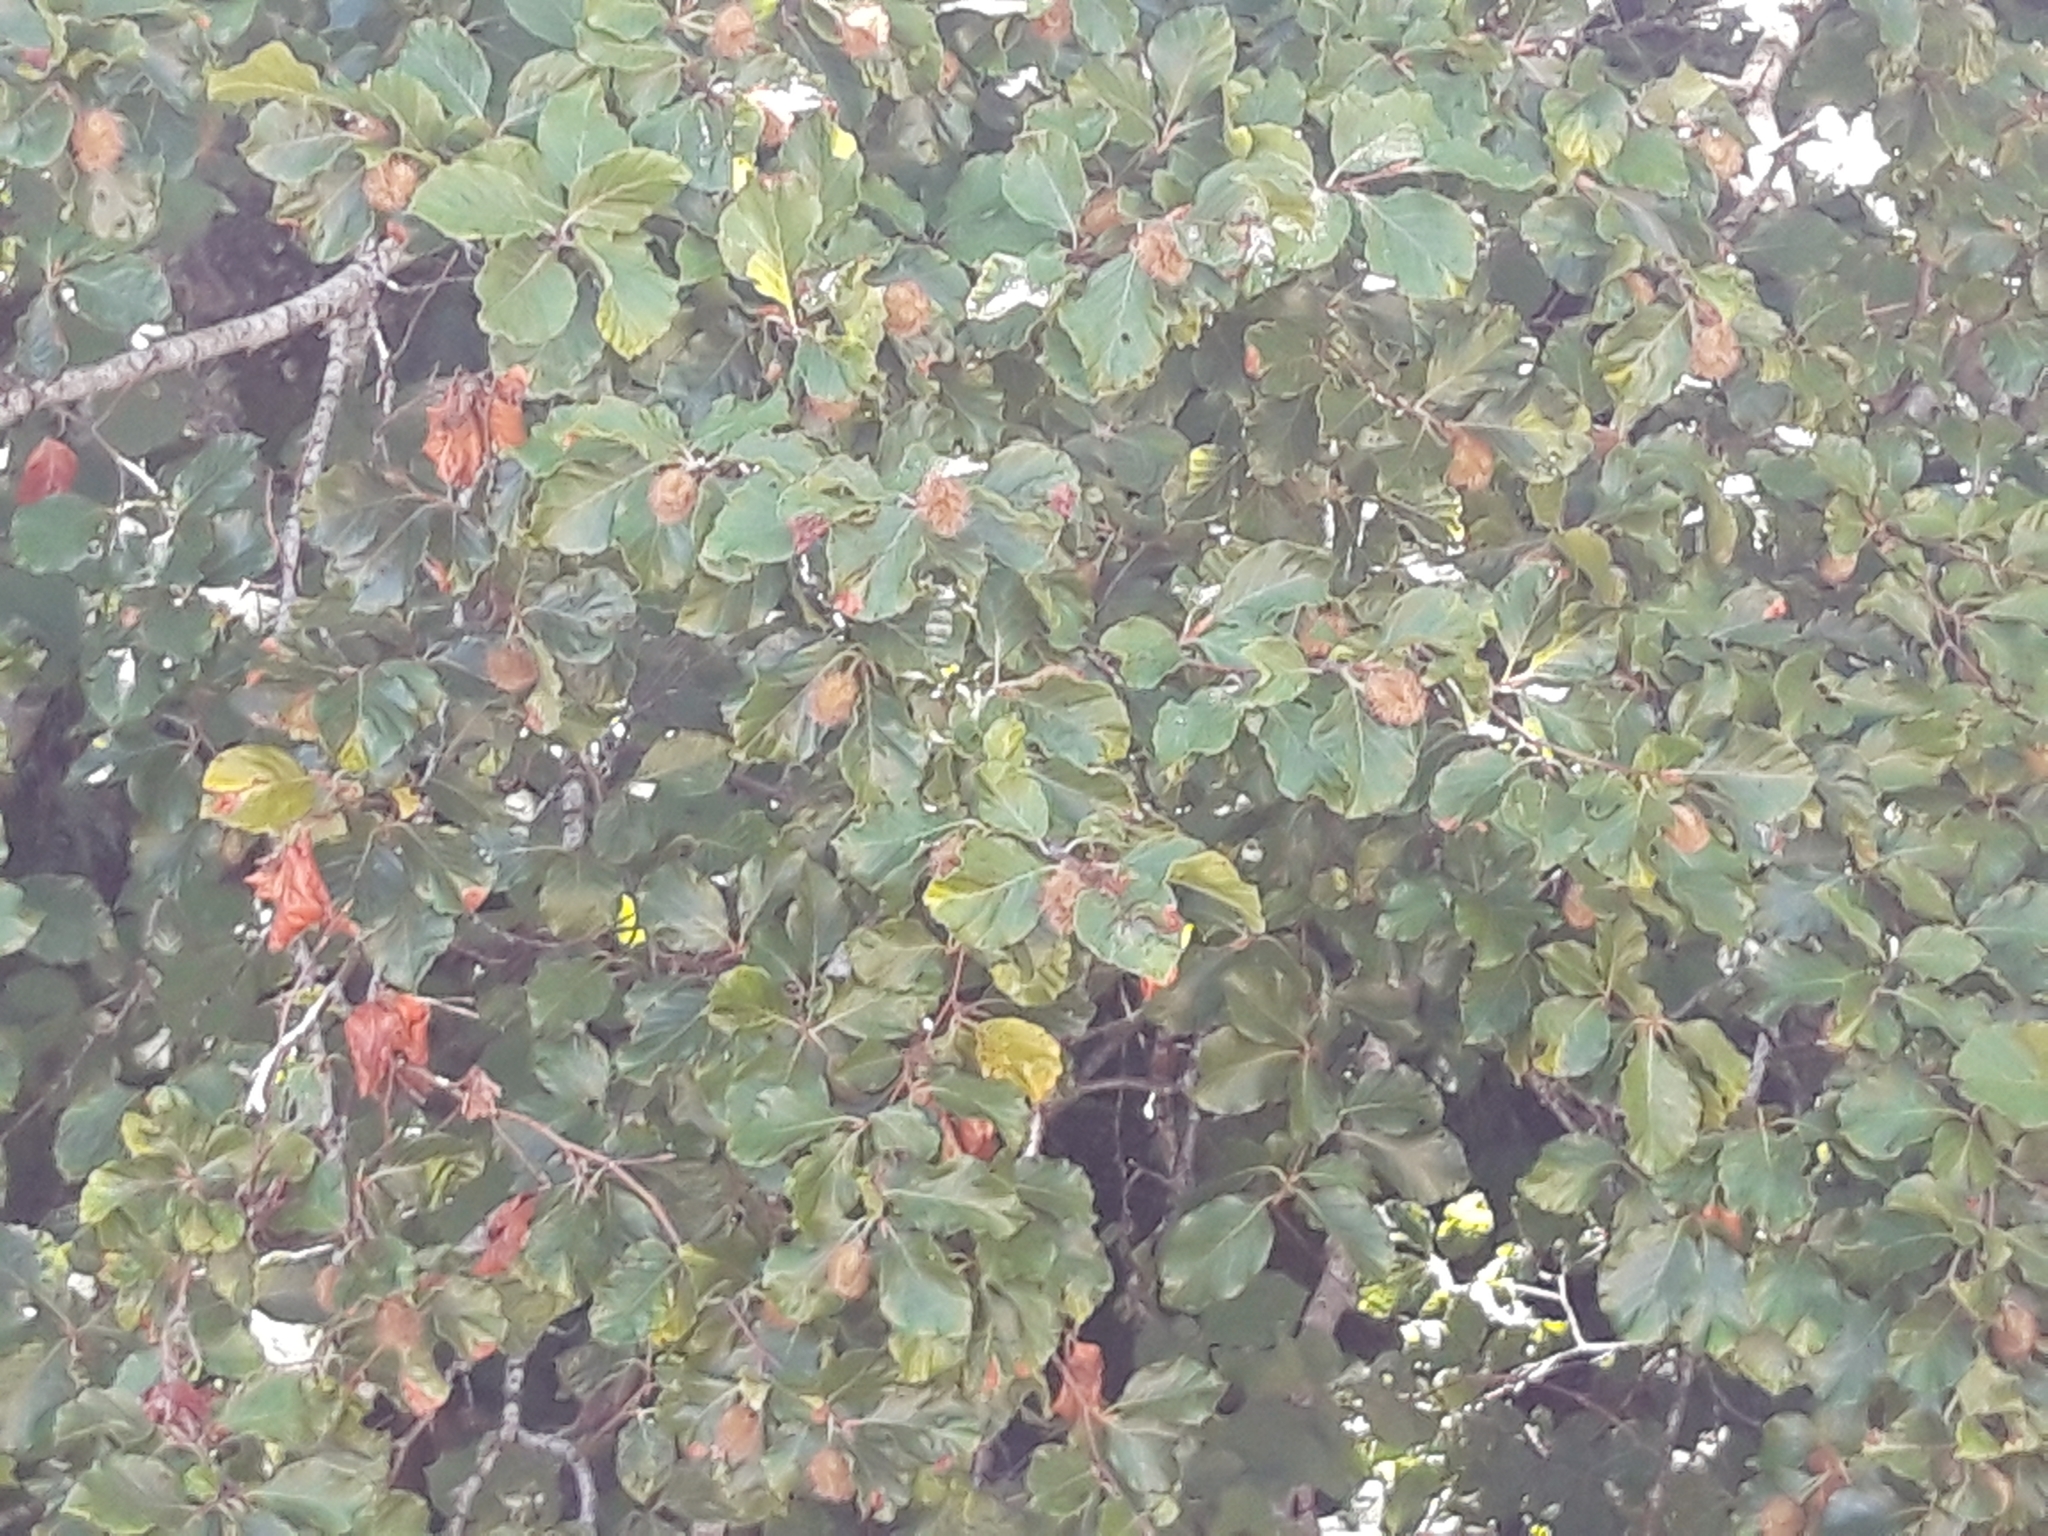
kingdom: Plantae
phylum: Tracheophyta
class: Magnoliopsida
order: Fagales
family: Fagaceae
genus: Fagus
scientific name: Fagus sylvatica
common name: Beech
